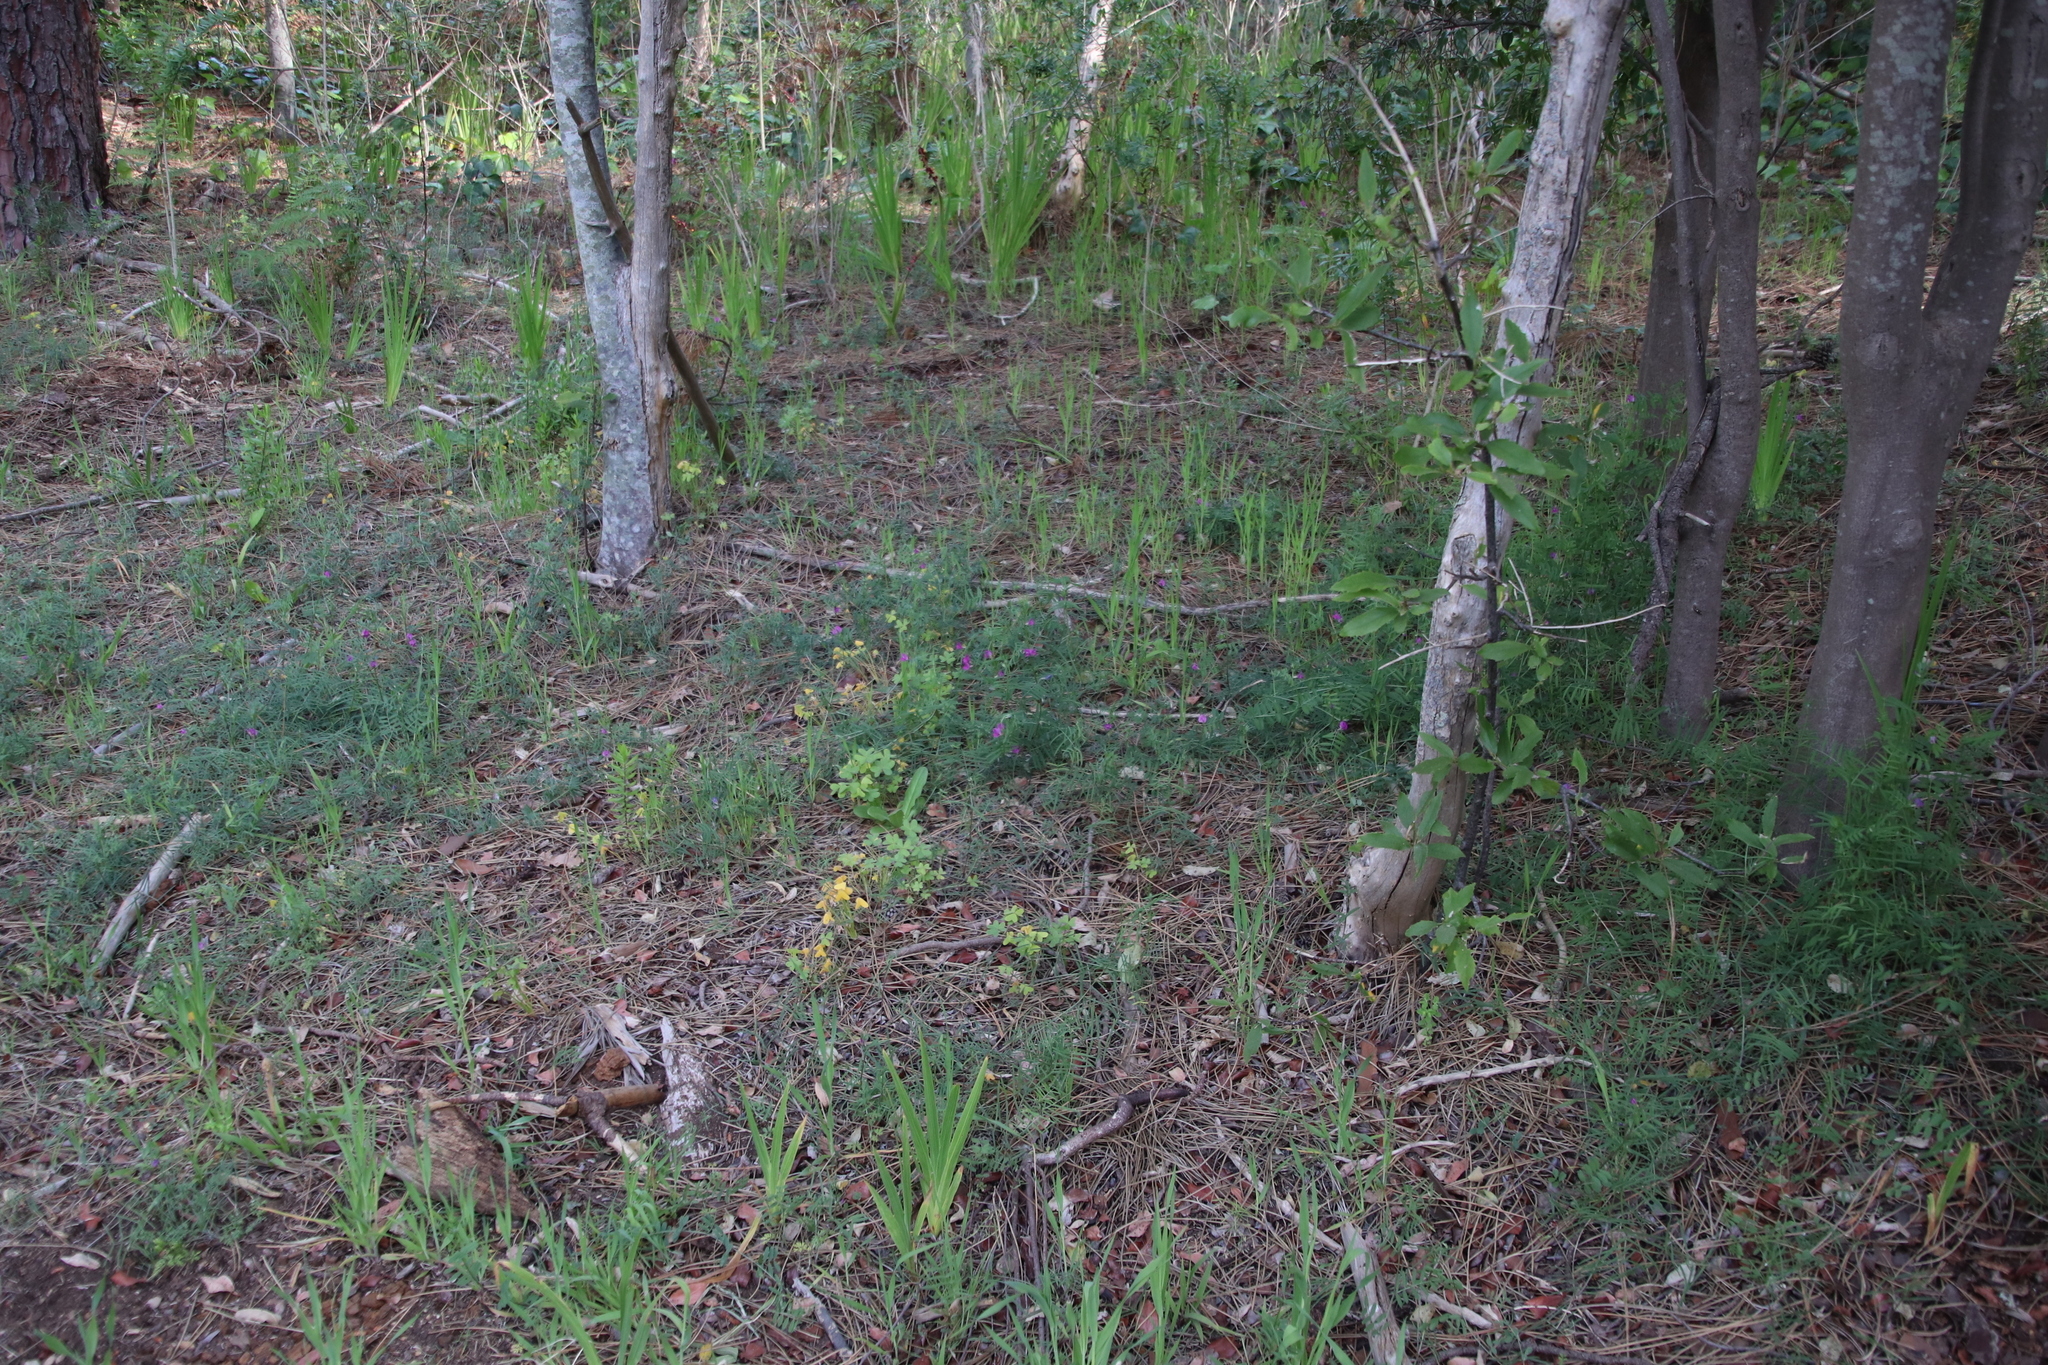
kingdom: Plantae
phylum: Tracheophyta
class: Magnoliopsida
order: Fabales
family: Fabaceae
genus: Vicia
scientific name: Vicia sativa
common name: Garden vetch
